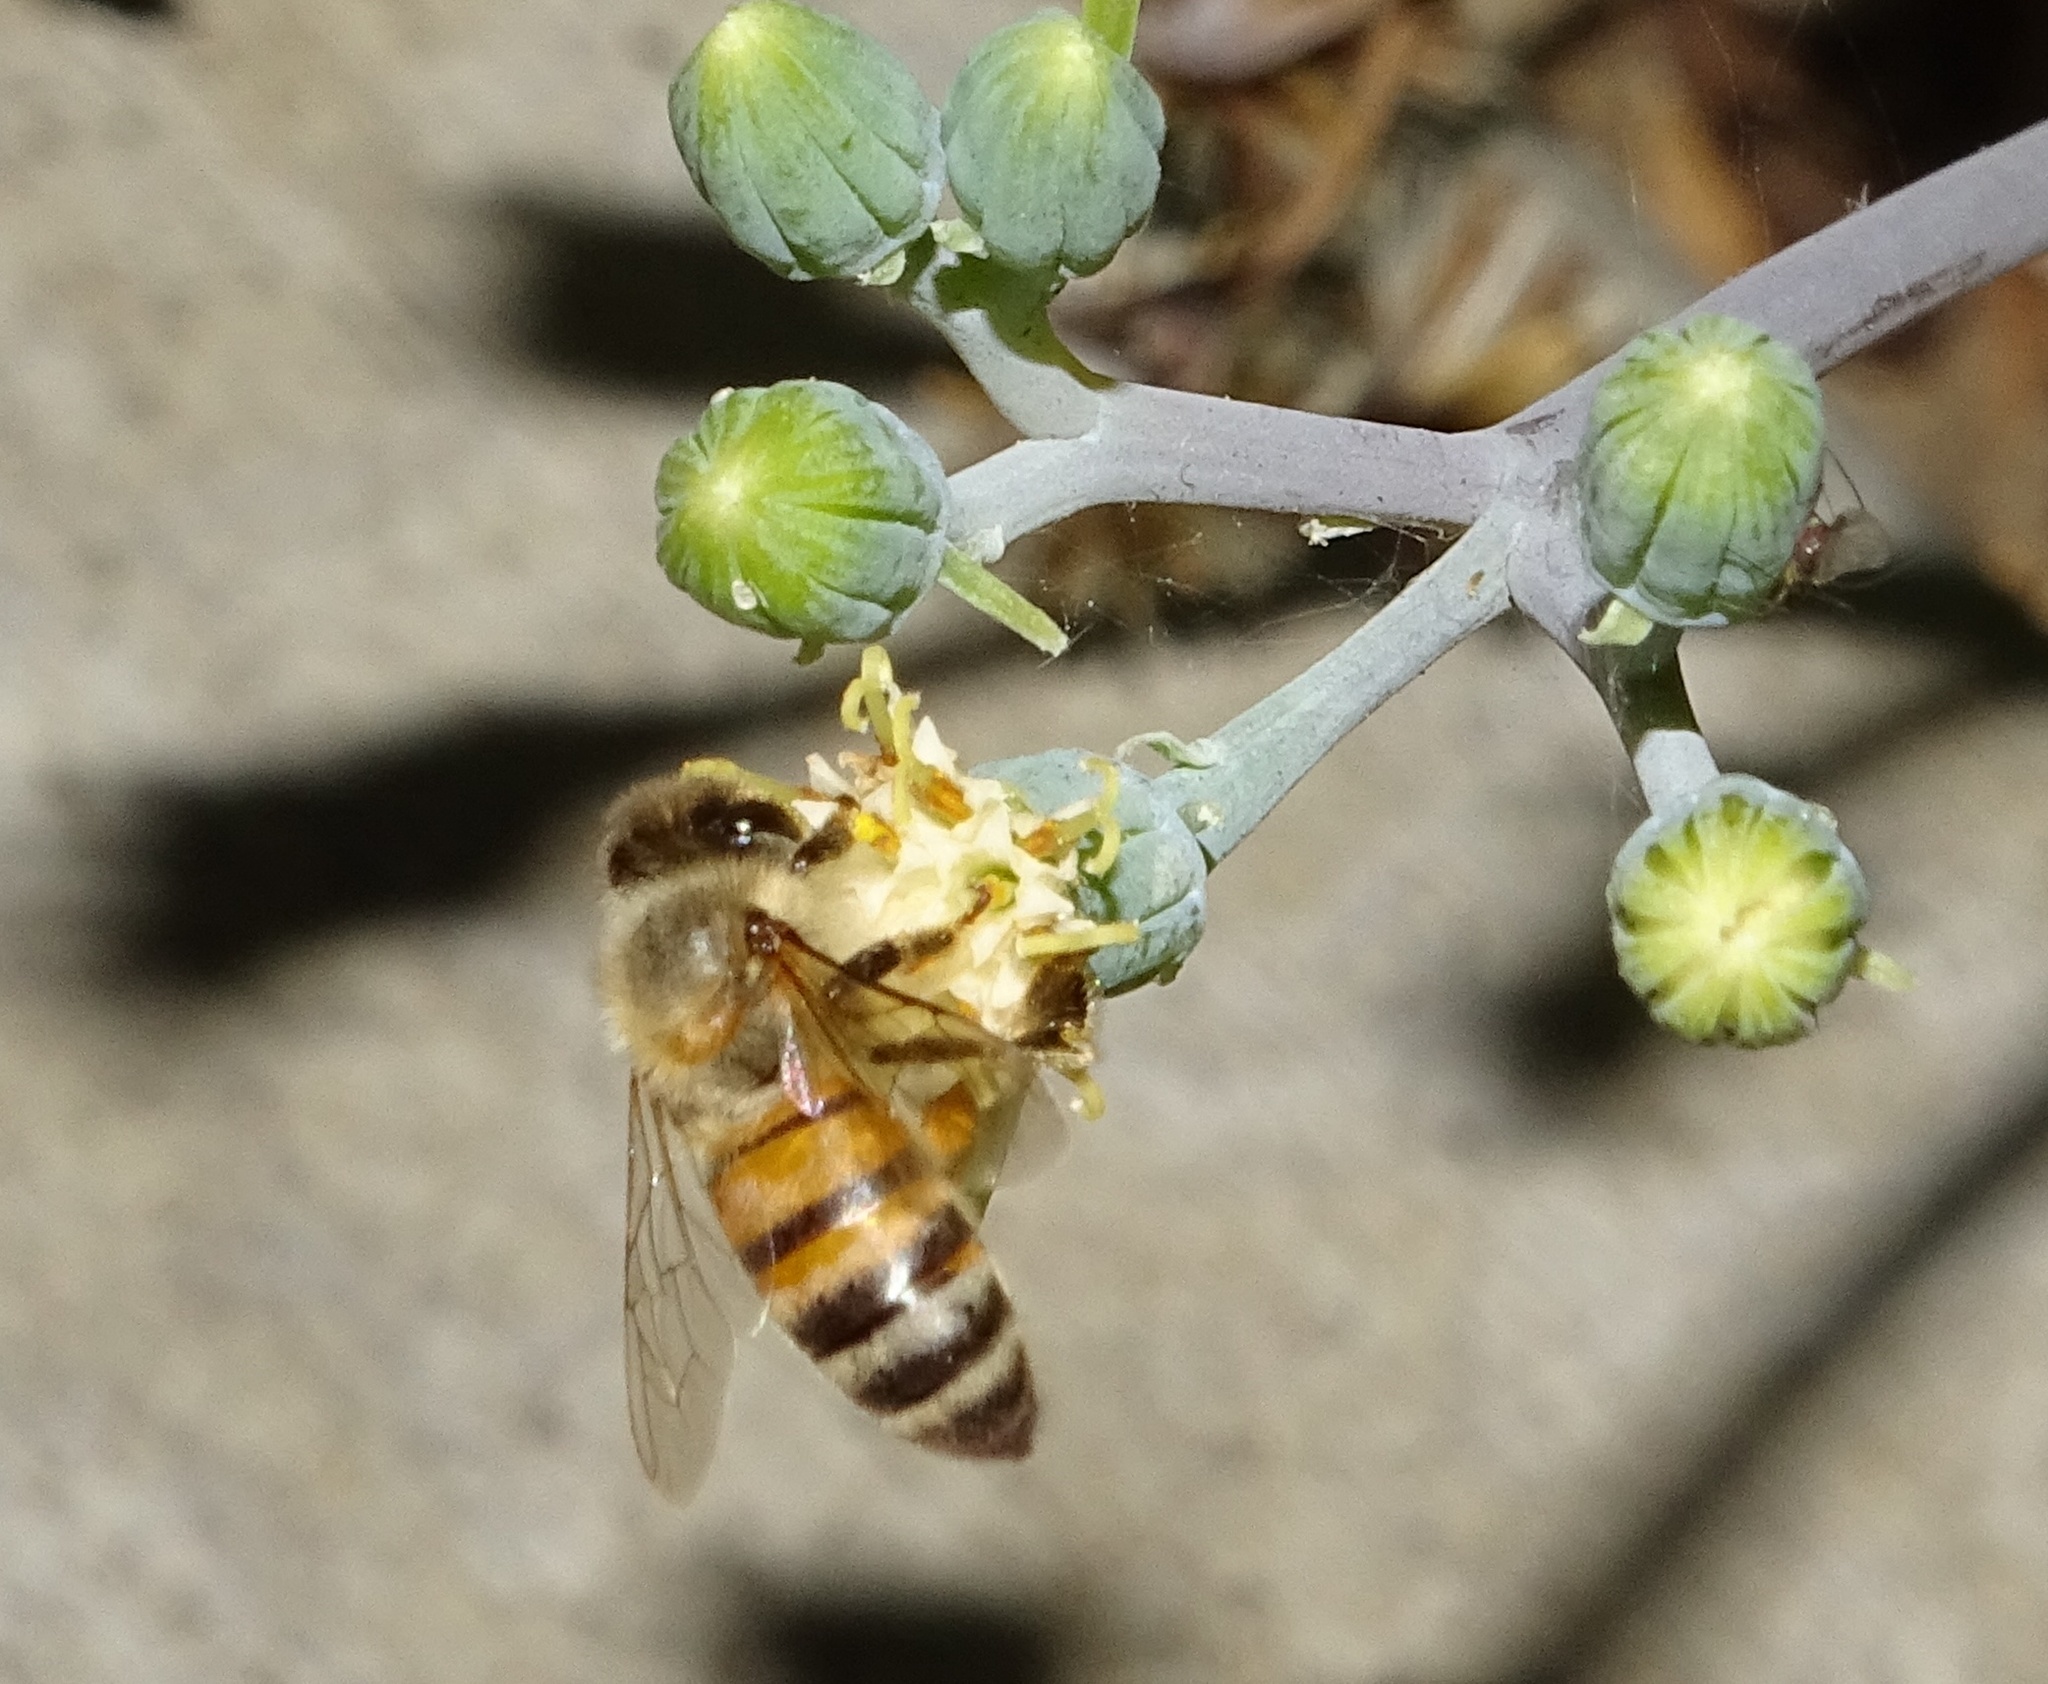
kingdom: Animalia
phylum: Arthropoda
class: Insecta
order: Hymenoptera
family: Apidae
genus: Apis
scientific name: Apis mellifera
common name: Honey bee
